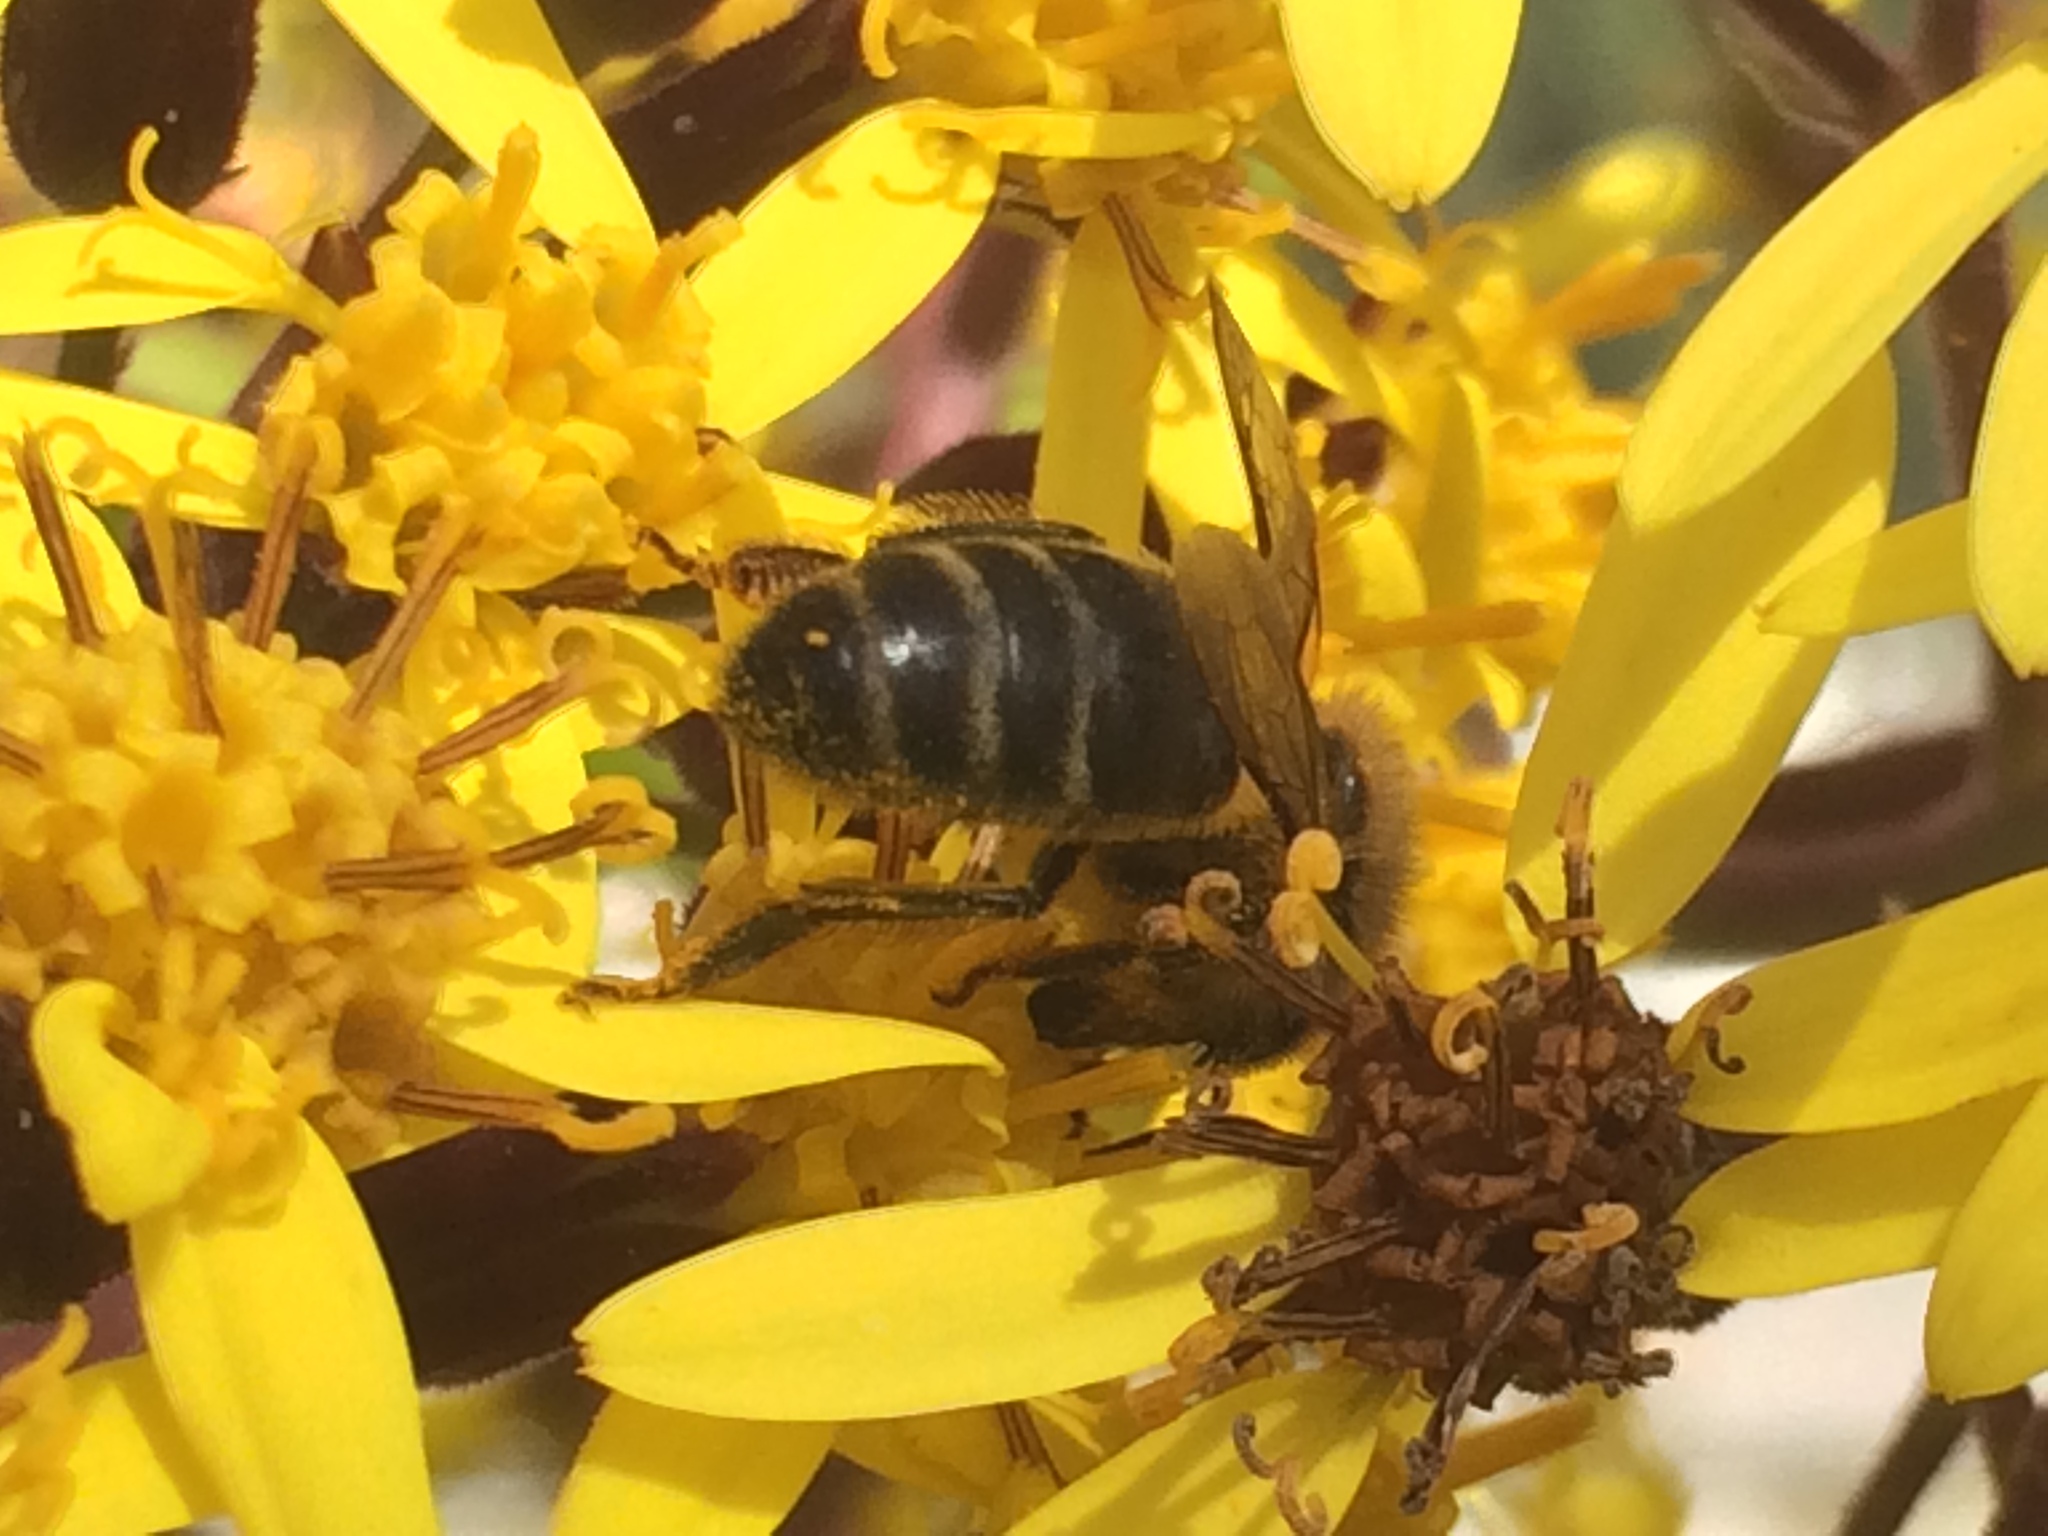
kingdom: Animalia
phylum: Arthropoda
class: Insecta
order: Hymenoptera
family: Apidae
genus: Apis
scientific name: Apis mellifera
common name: Honey bee
